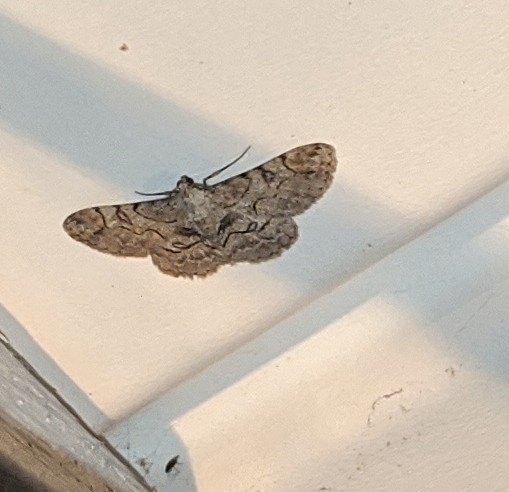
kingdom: Animalia
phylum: Arthropoda
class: Insecta
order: Lepidoptera
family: Geometridae
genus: Iridopsis
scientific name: Iridopsis larvaria
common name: Bent-line gray
